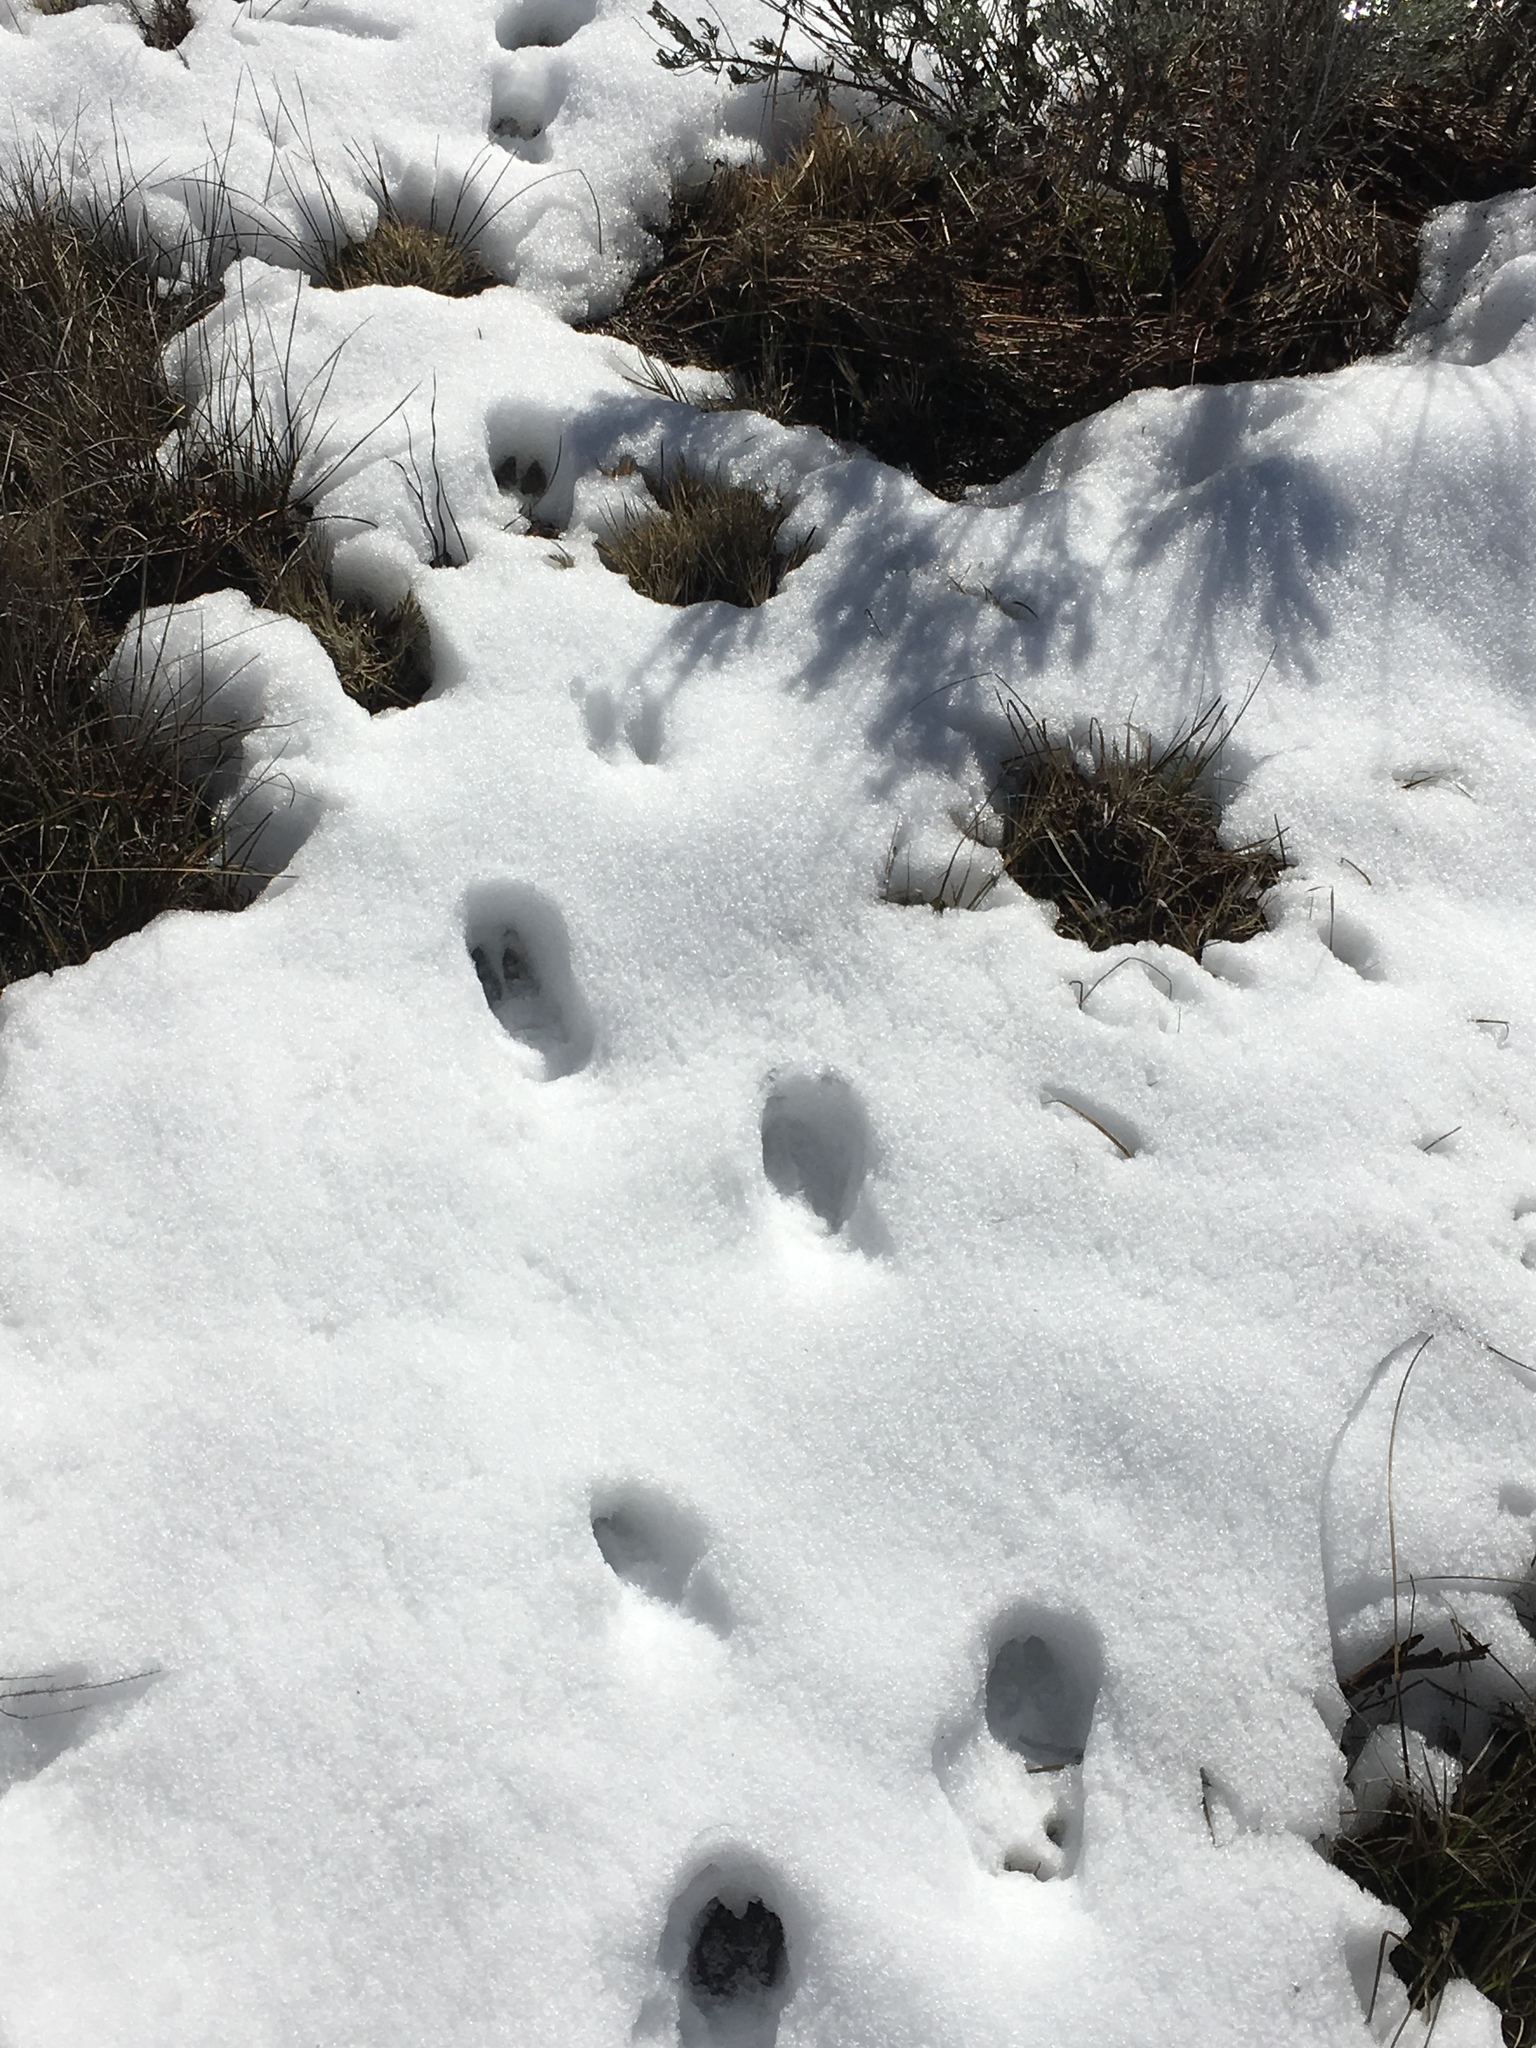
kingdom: Animalia
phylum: Chordata
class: Mammalia
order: Artiodactyla
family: Cervidae
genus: Odocoileus
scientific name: Odocoileus hemionus
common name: Mule deer
